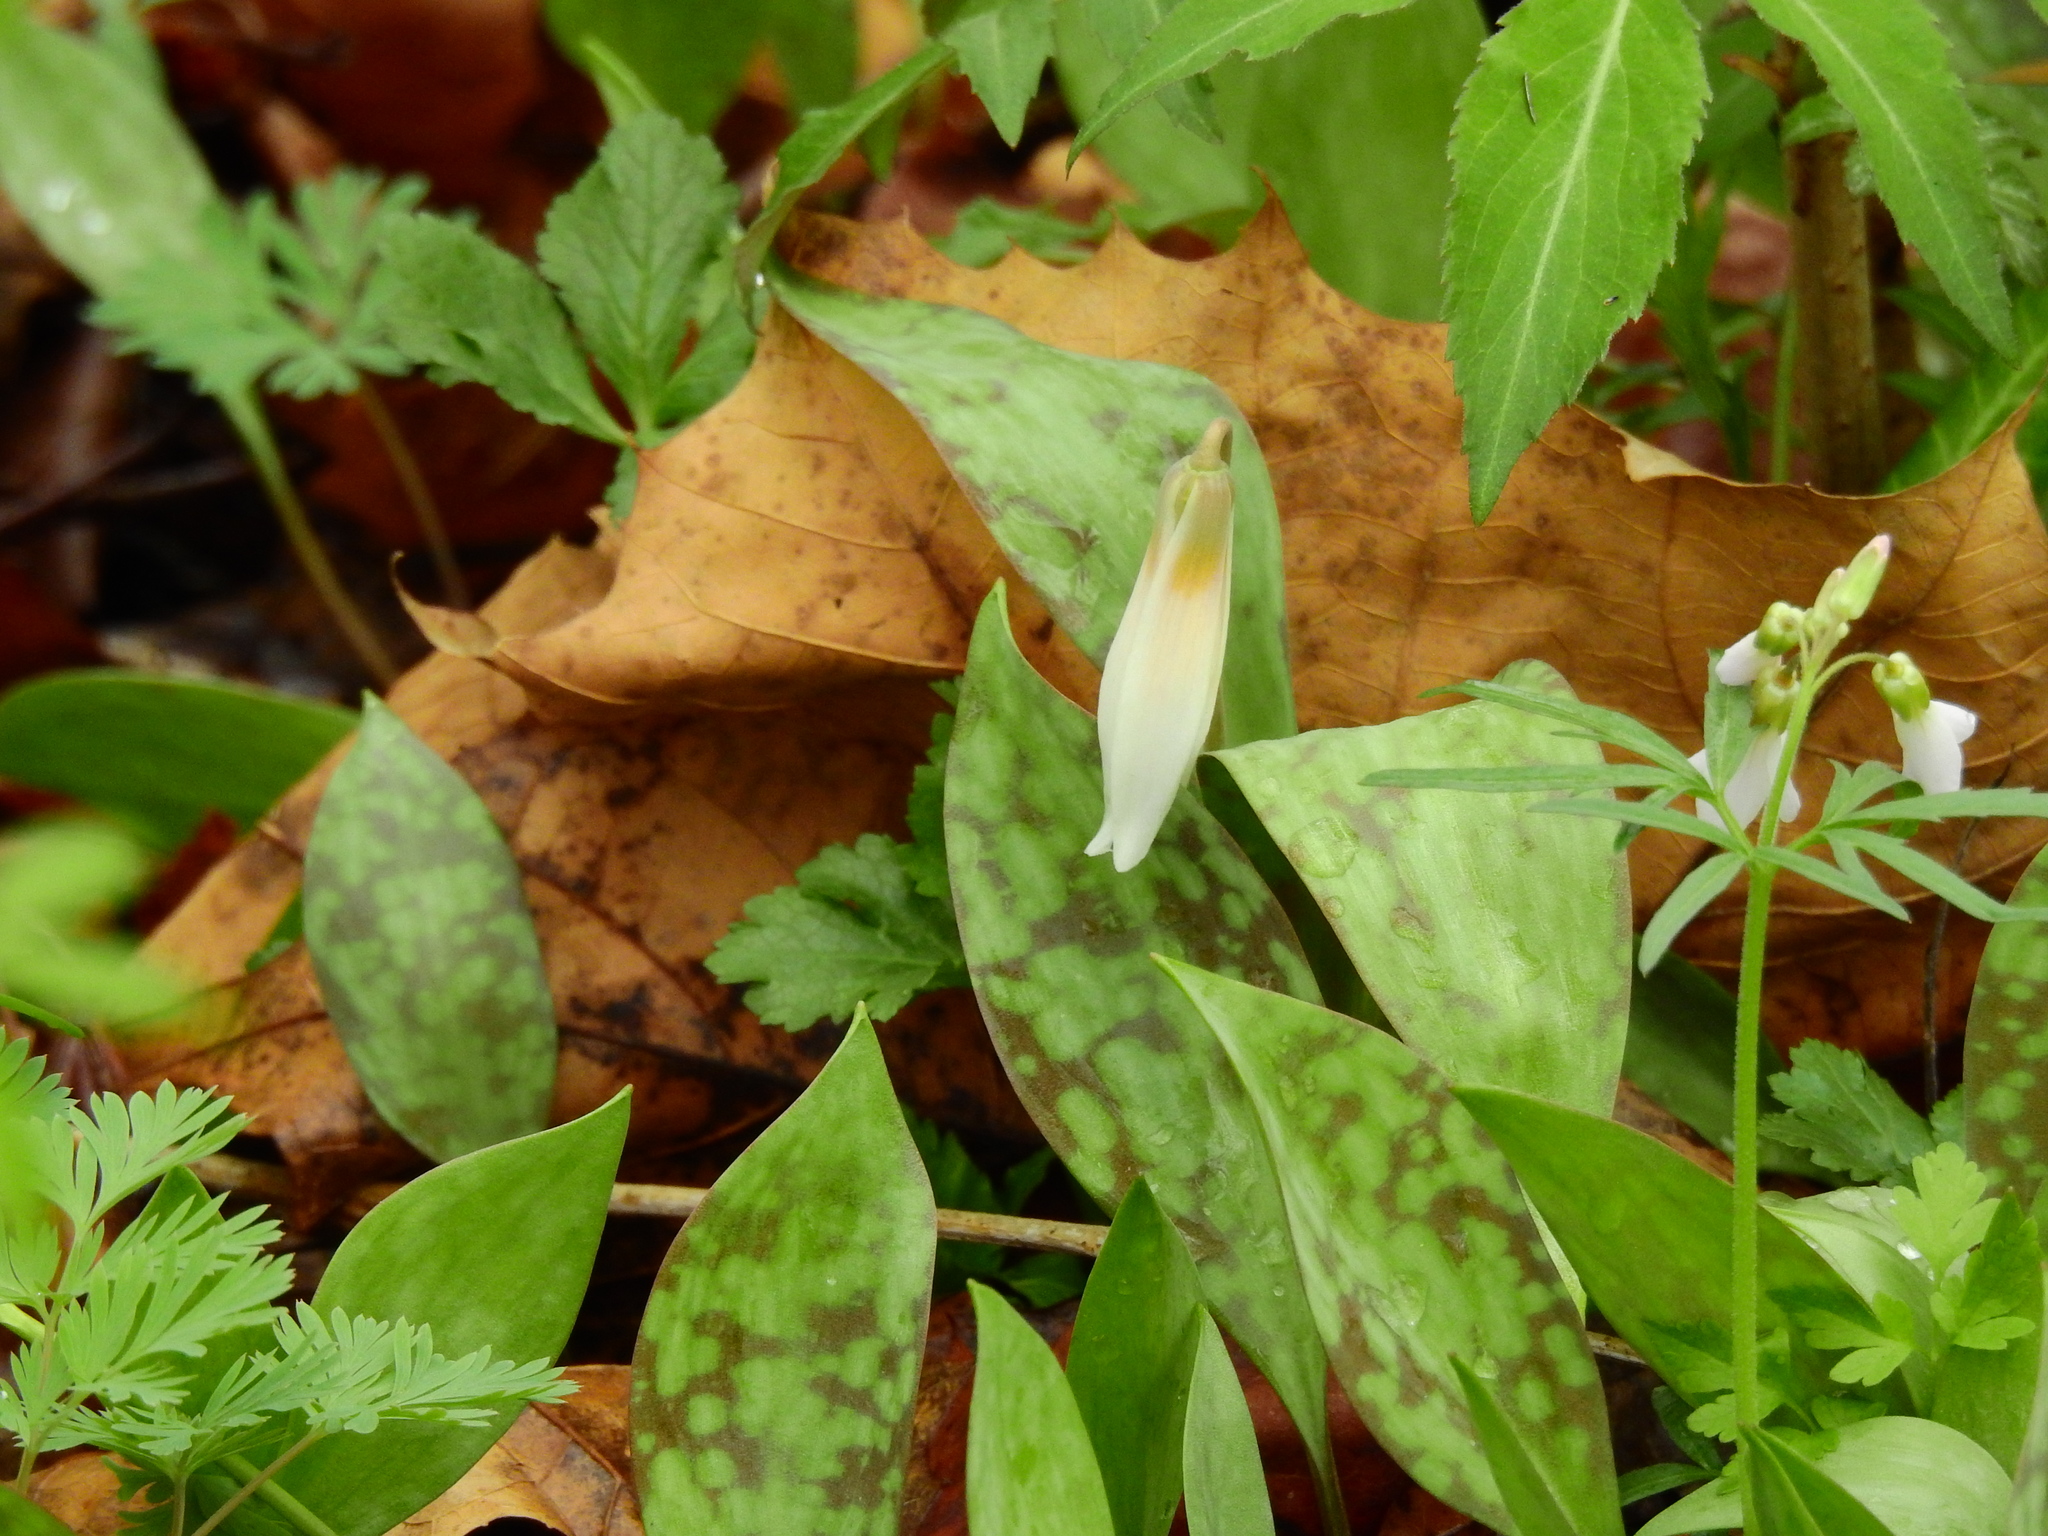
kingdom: Plantae
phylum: Tracheophyta
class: Liliopsida
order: Liliales
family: Liliaceae
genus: Erythronium
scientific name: Erythronium albidum
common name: White trout-lily
